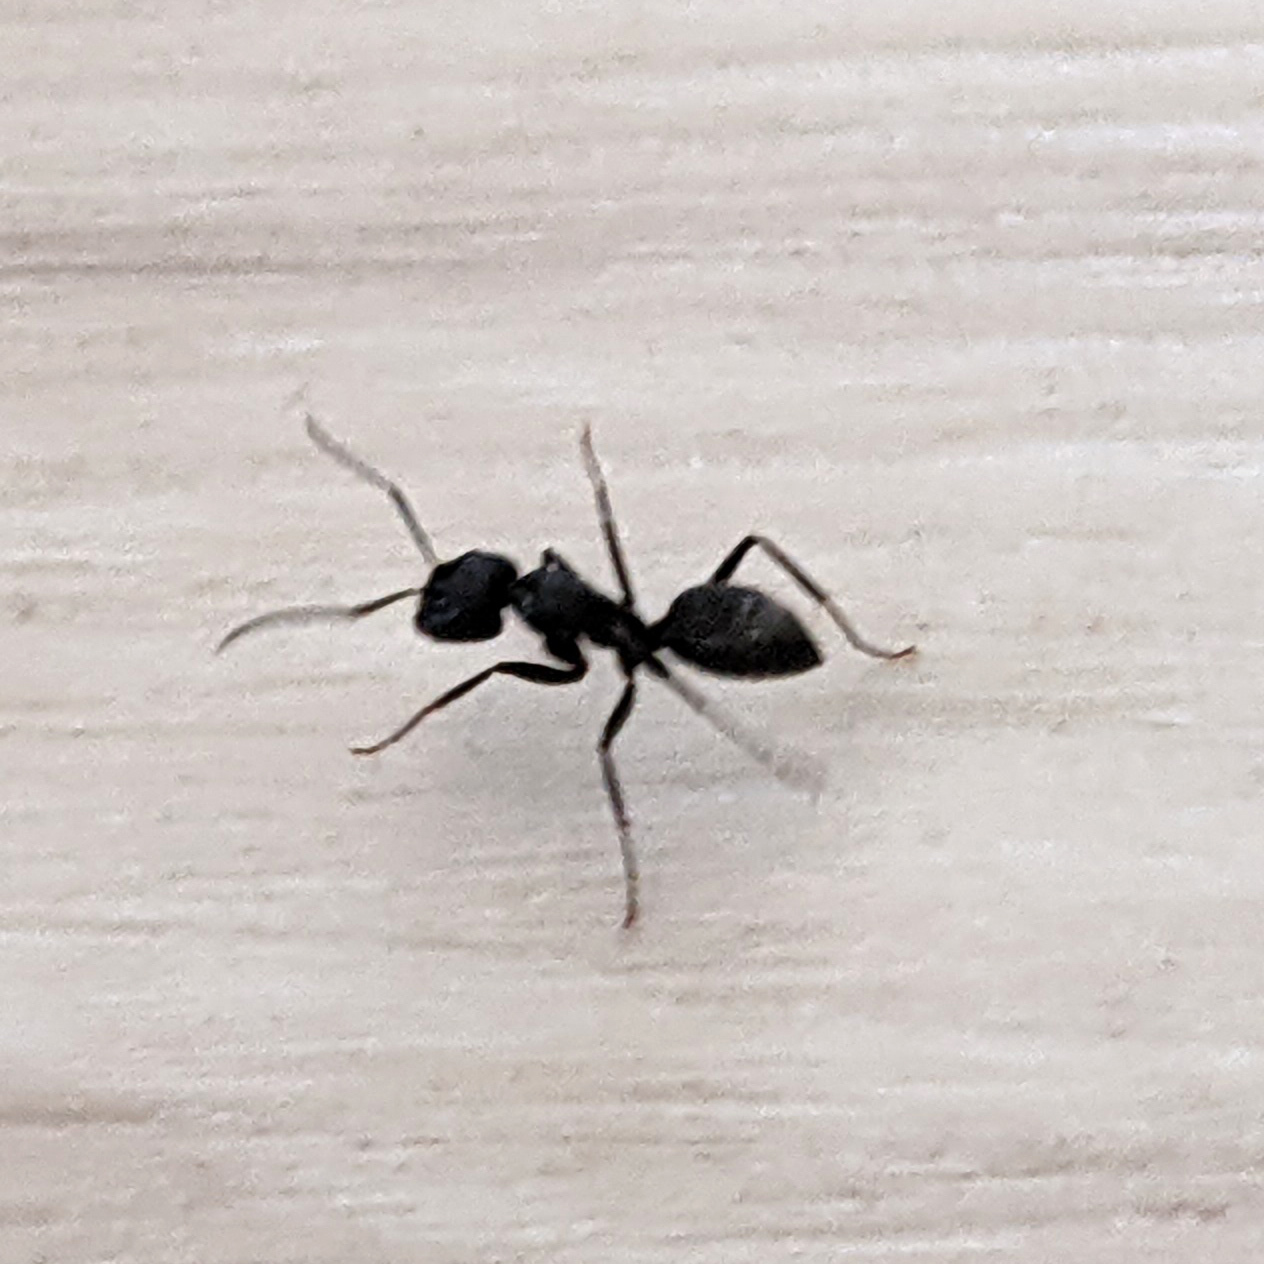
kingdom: Animalia
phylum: Arthropoda
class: Insecta
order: Hymenoptera
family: Formicidae
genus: Camponotus
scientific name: Camponotus pennsylvanicus
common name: Black carpenter ant
